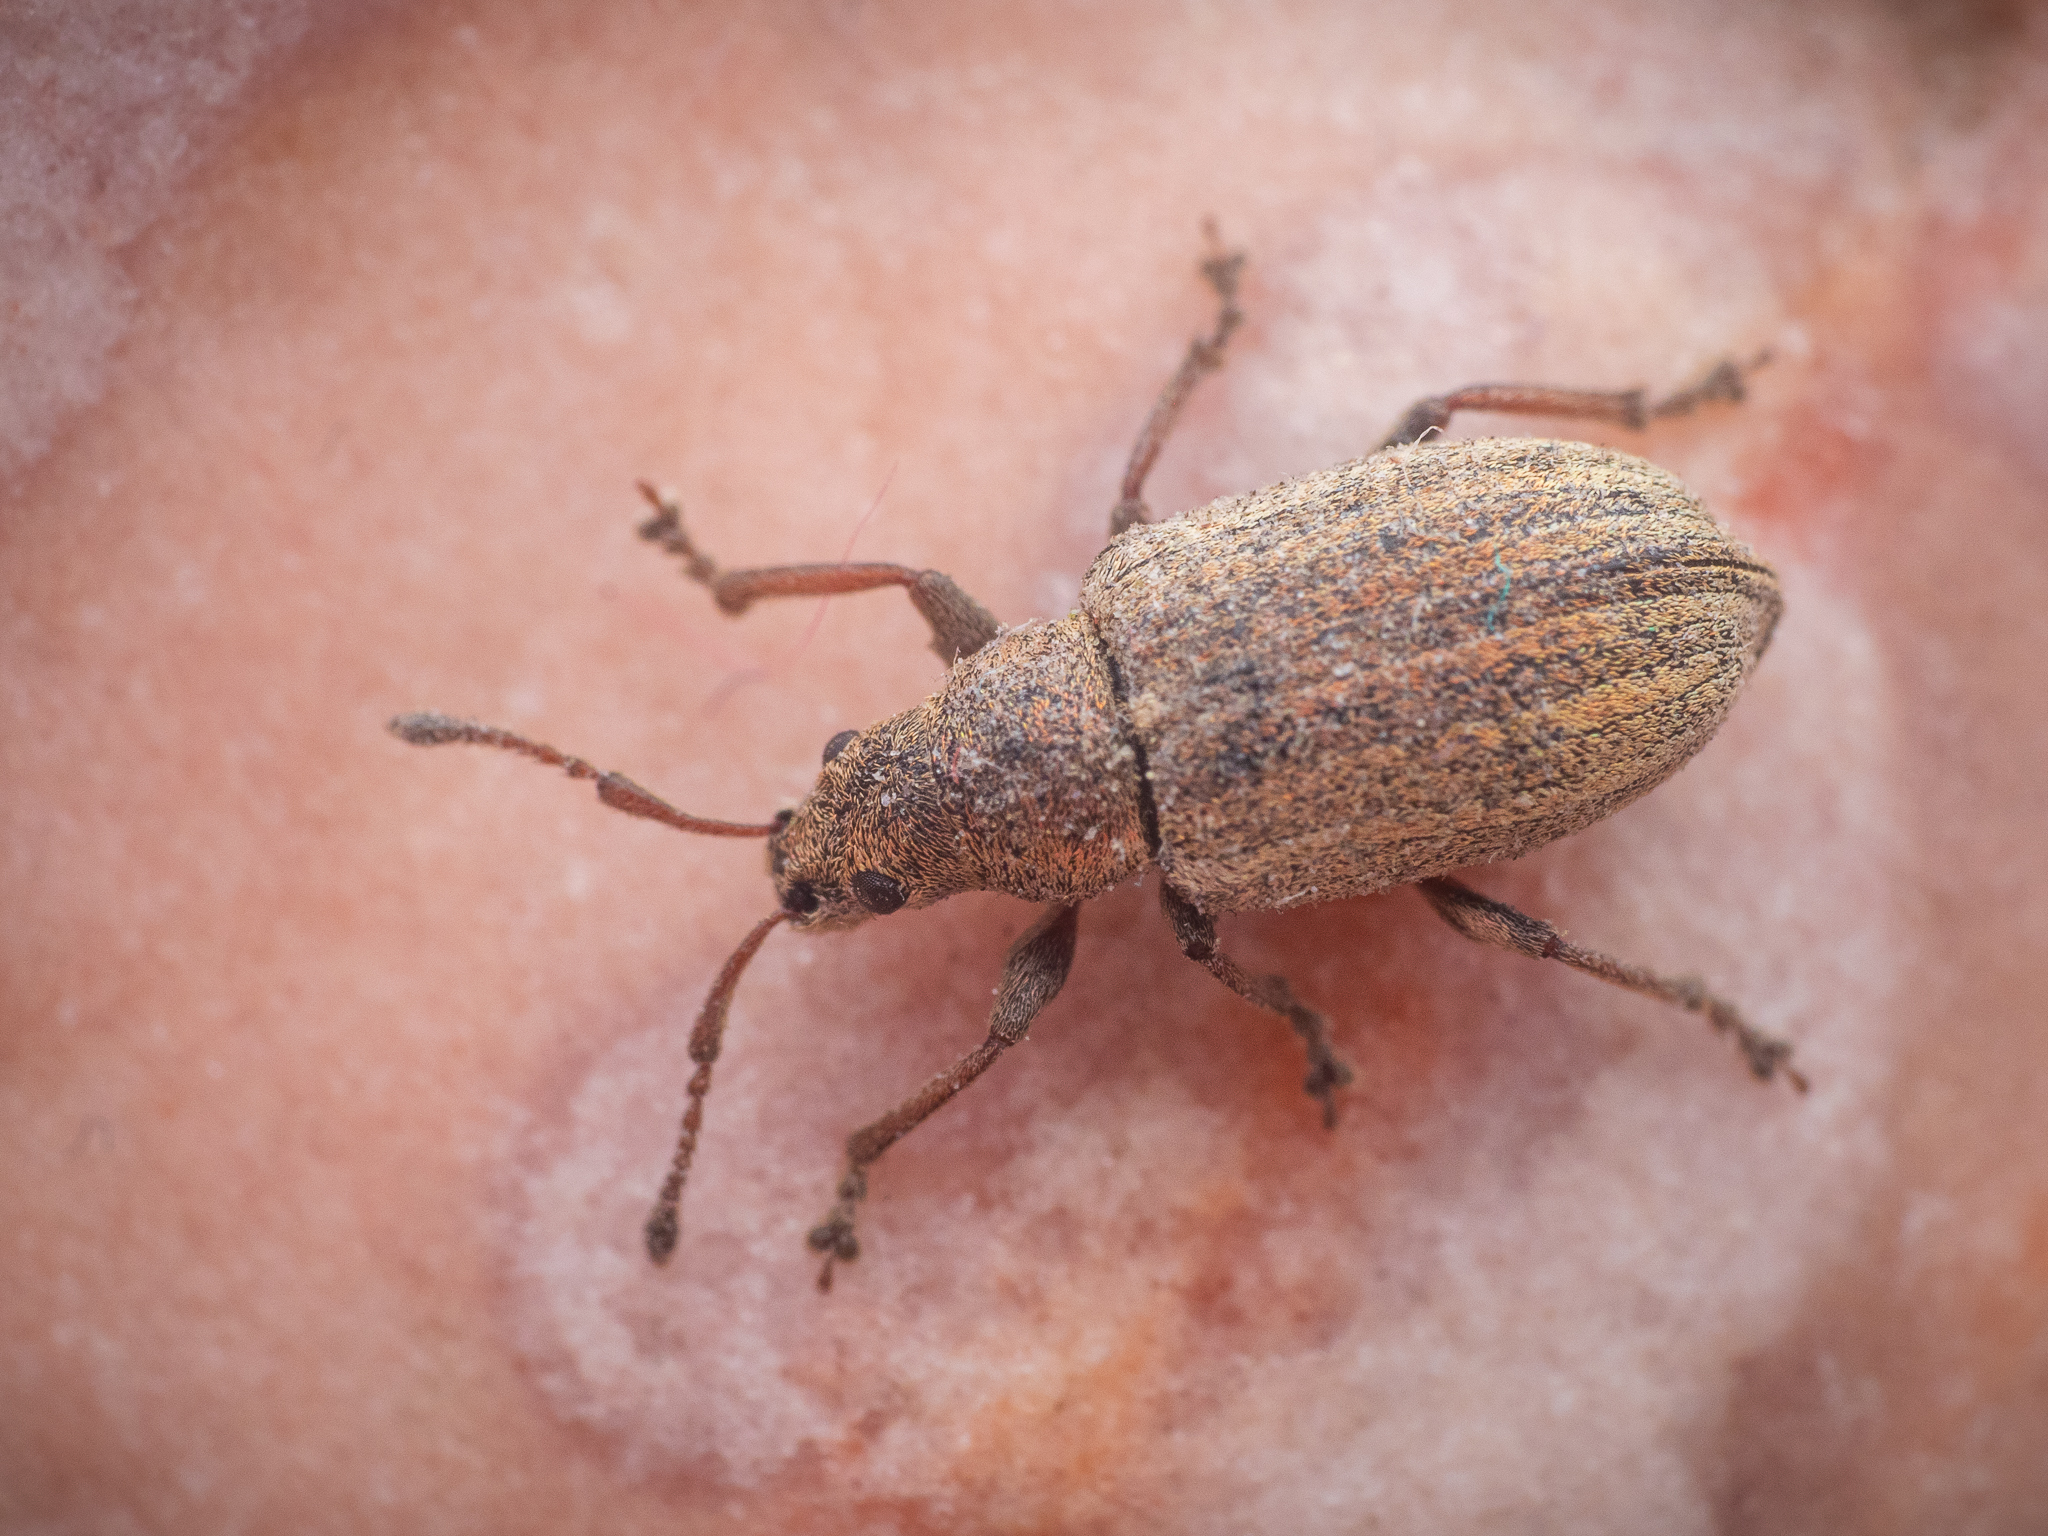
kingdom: Animalia
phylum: Arthropoda
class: Insecta
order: Coleoptera
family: Curculionidae
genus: Phyllobius
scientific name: Phyllobius pyri
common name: Common leaf weevil
